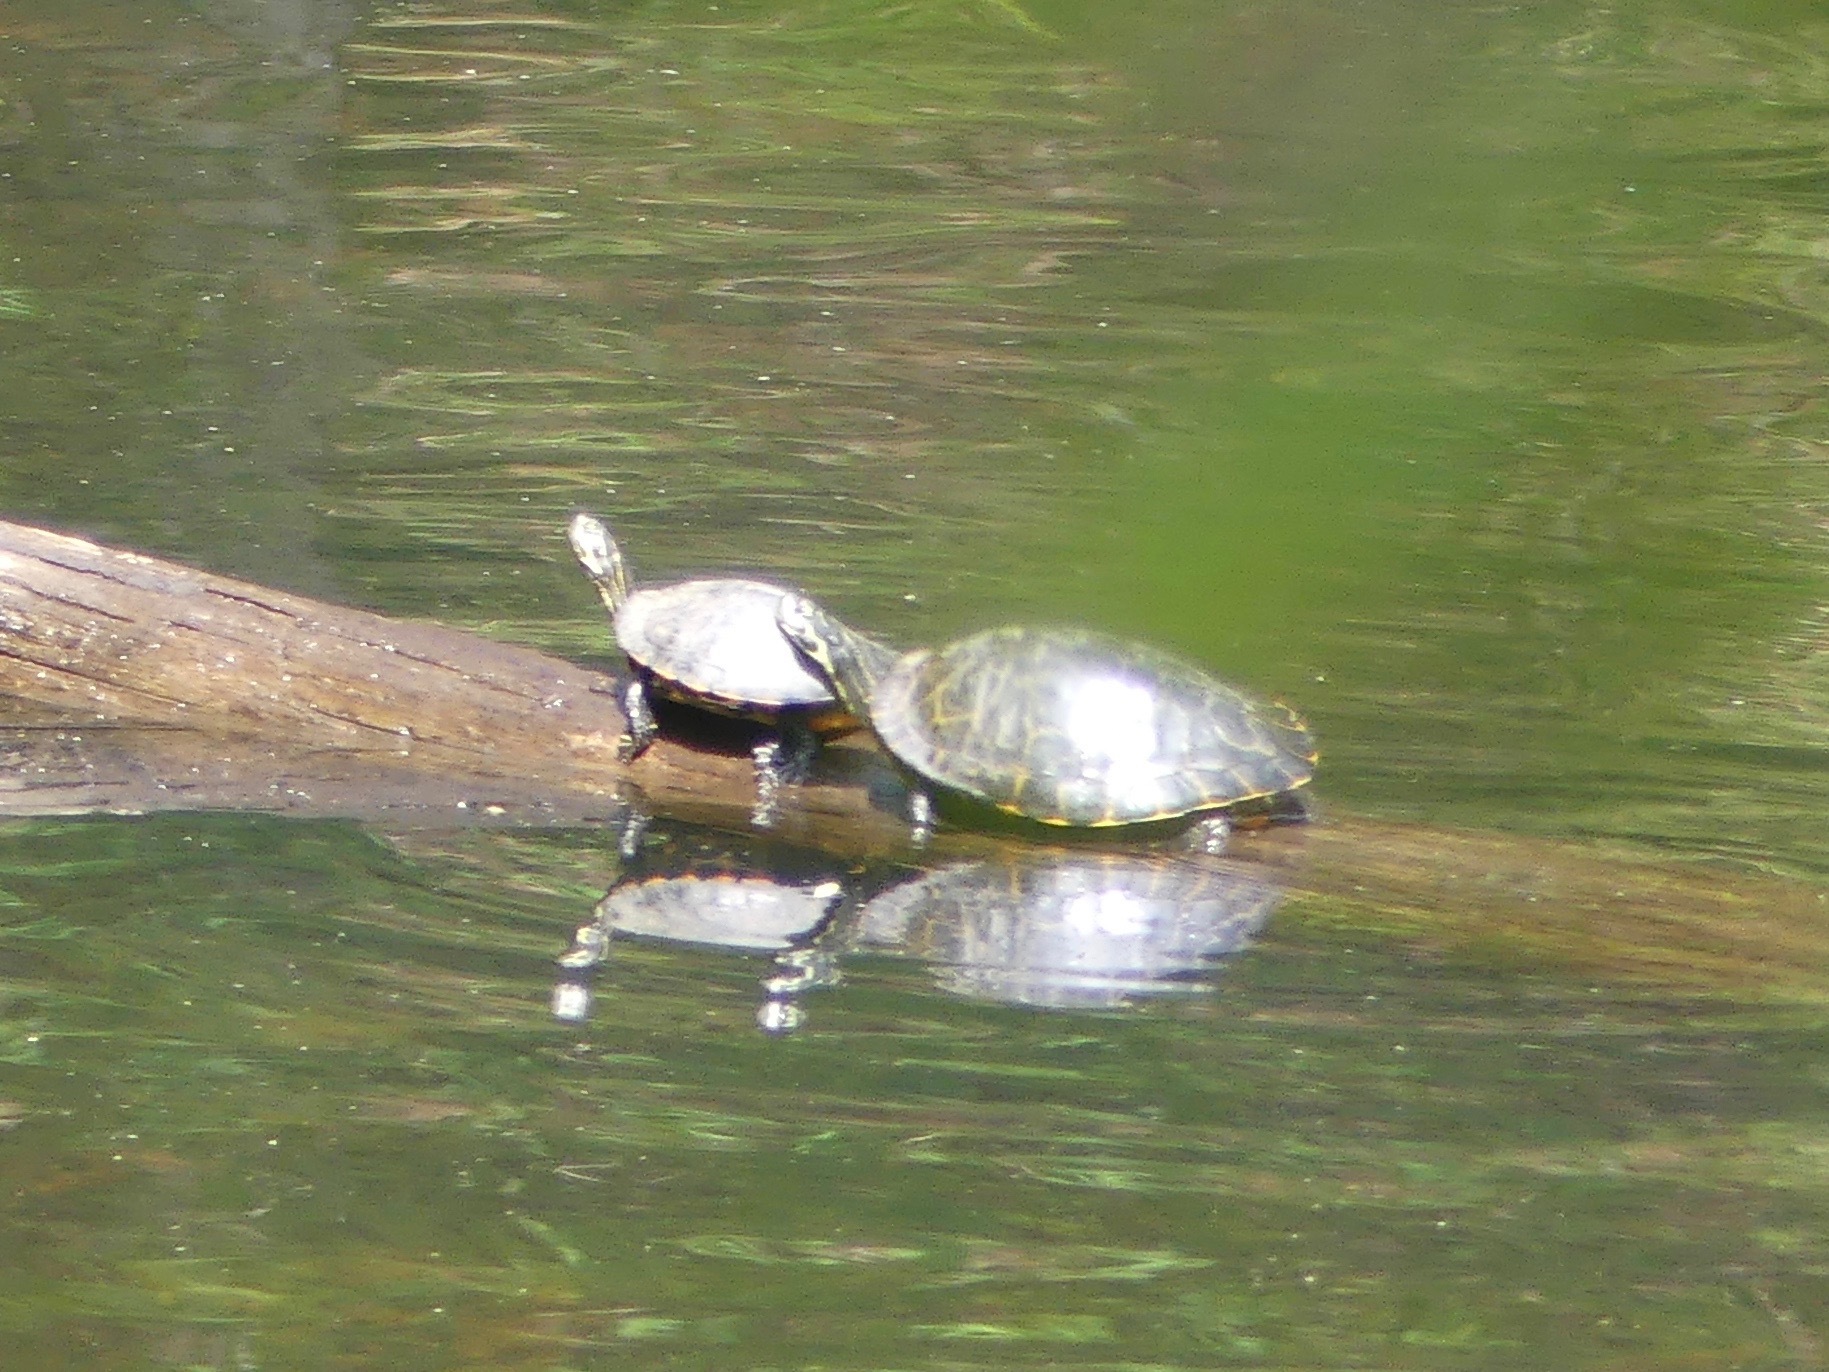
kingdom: Animalia
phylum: Chordata
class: Testudines
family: Emydidae
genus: Pseudemys
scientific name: Pseudemys concinna
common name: Eastern river cooter
